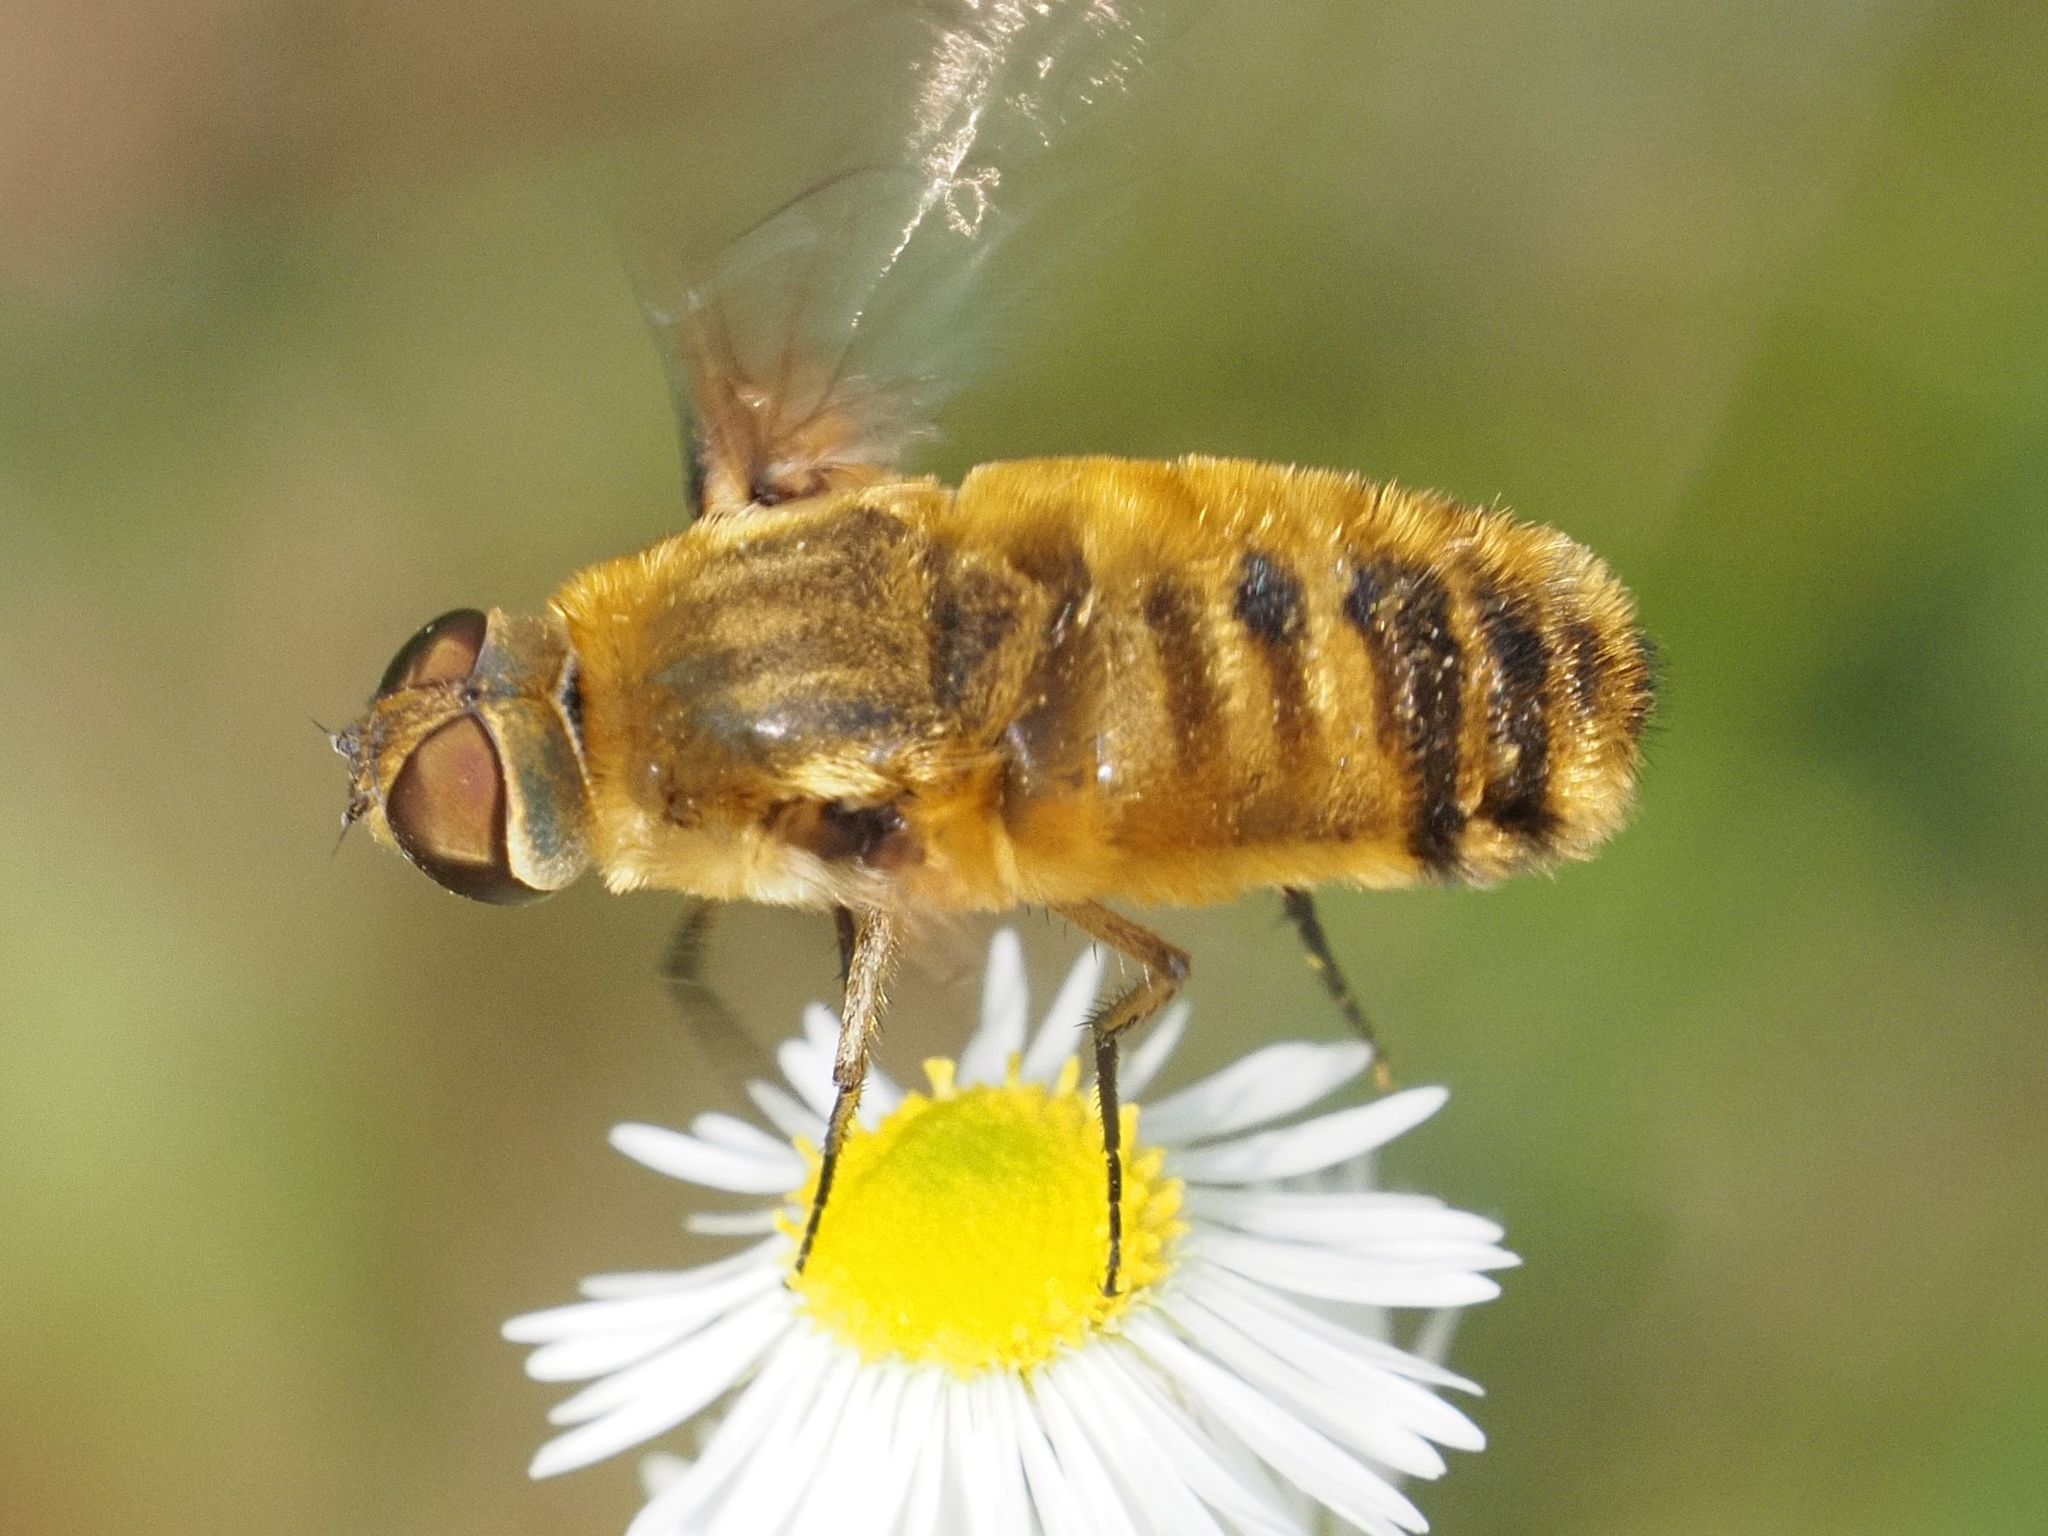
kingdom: Animalia
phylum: Arthropoda
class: Insecta
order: Diptera
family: Bombyliidae
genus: Villa
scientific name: Villa hottentotta
